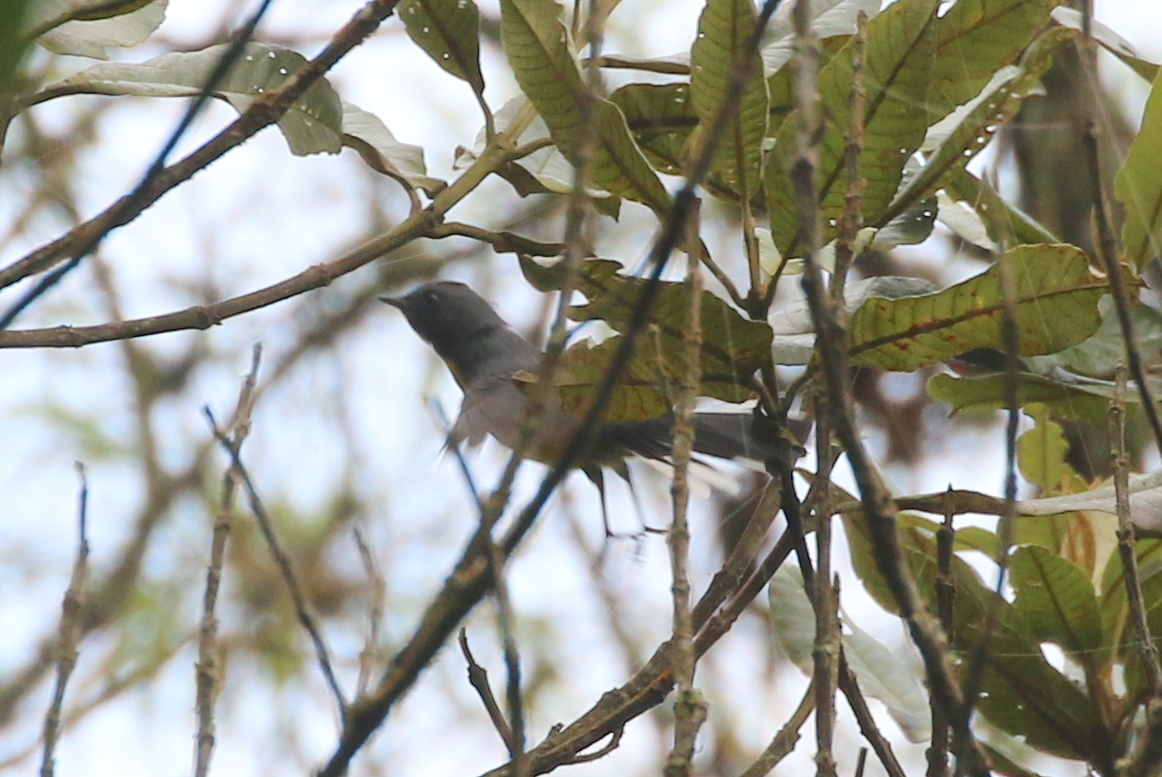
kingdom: Animalia
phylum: Chordata
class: Aves
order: Passeriformes
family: Parulidae
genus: Myioborus
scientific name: Myioborus miniatus
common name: Slate-throated redstart
